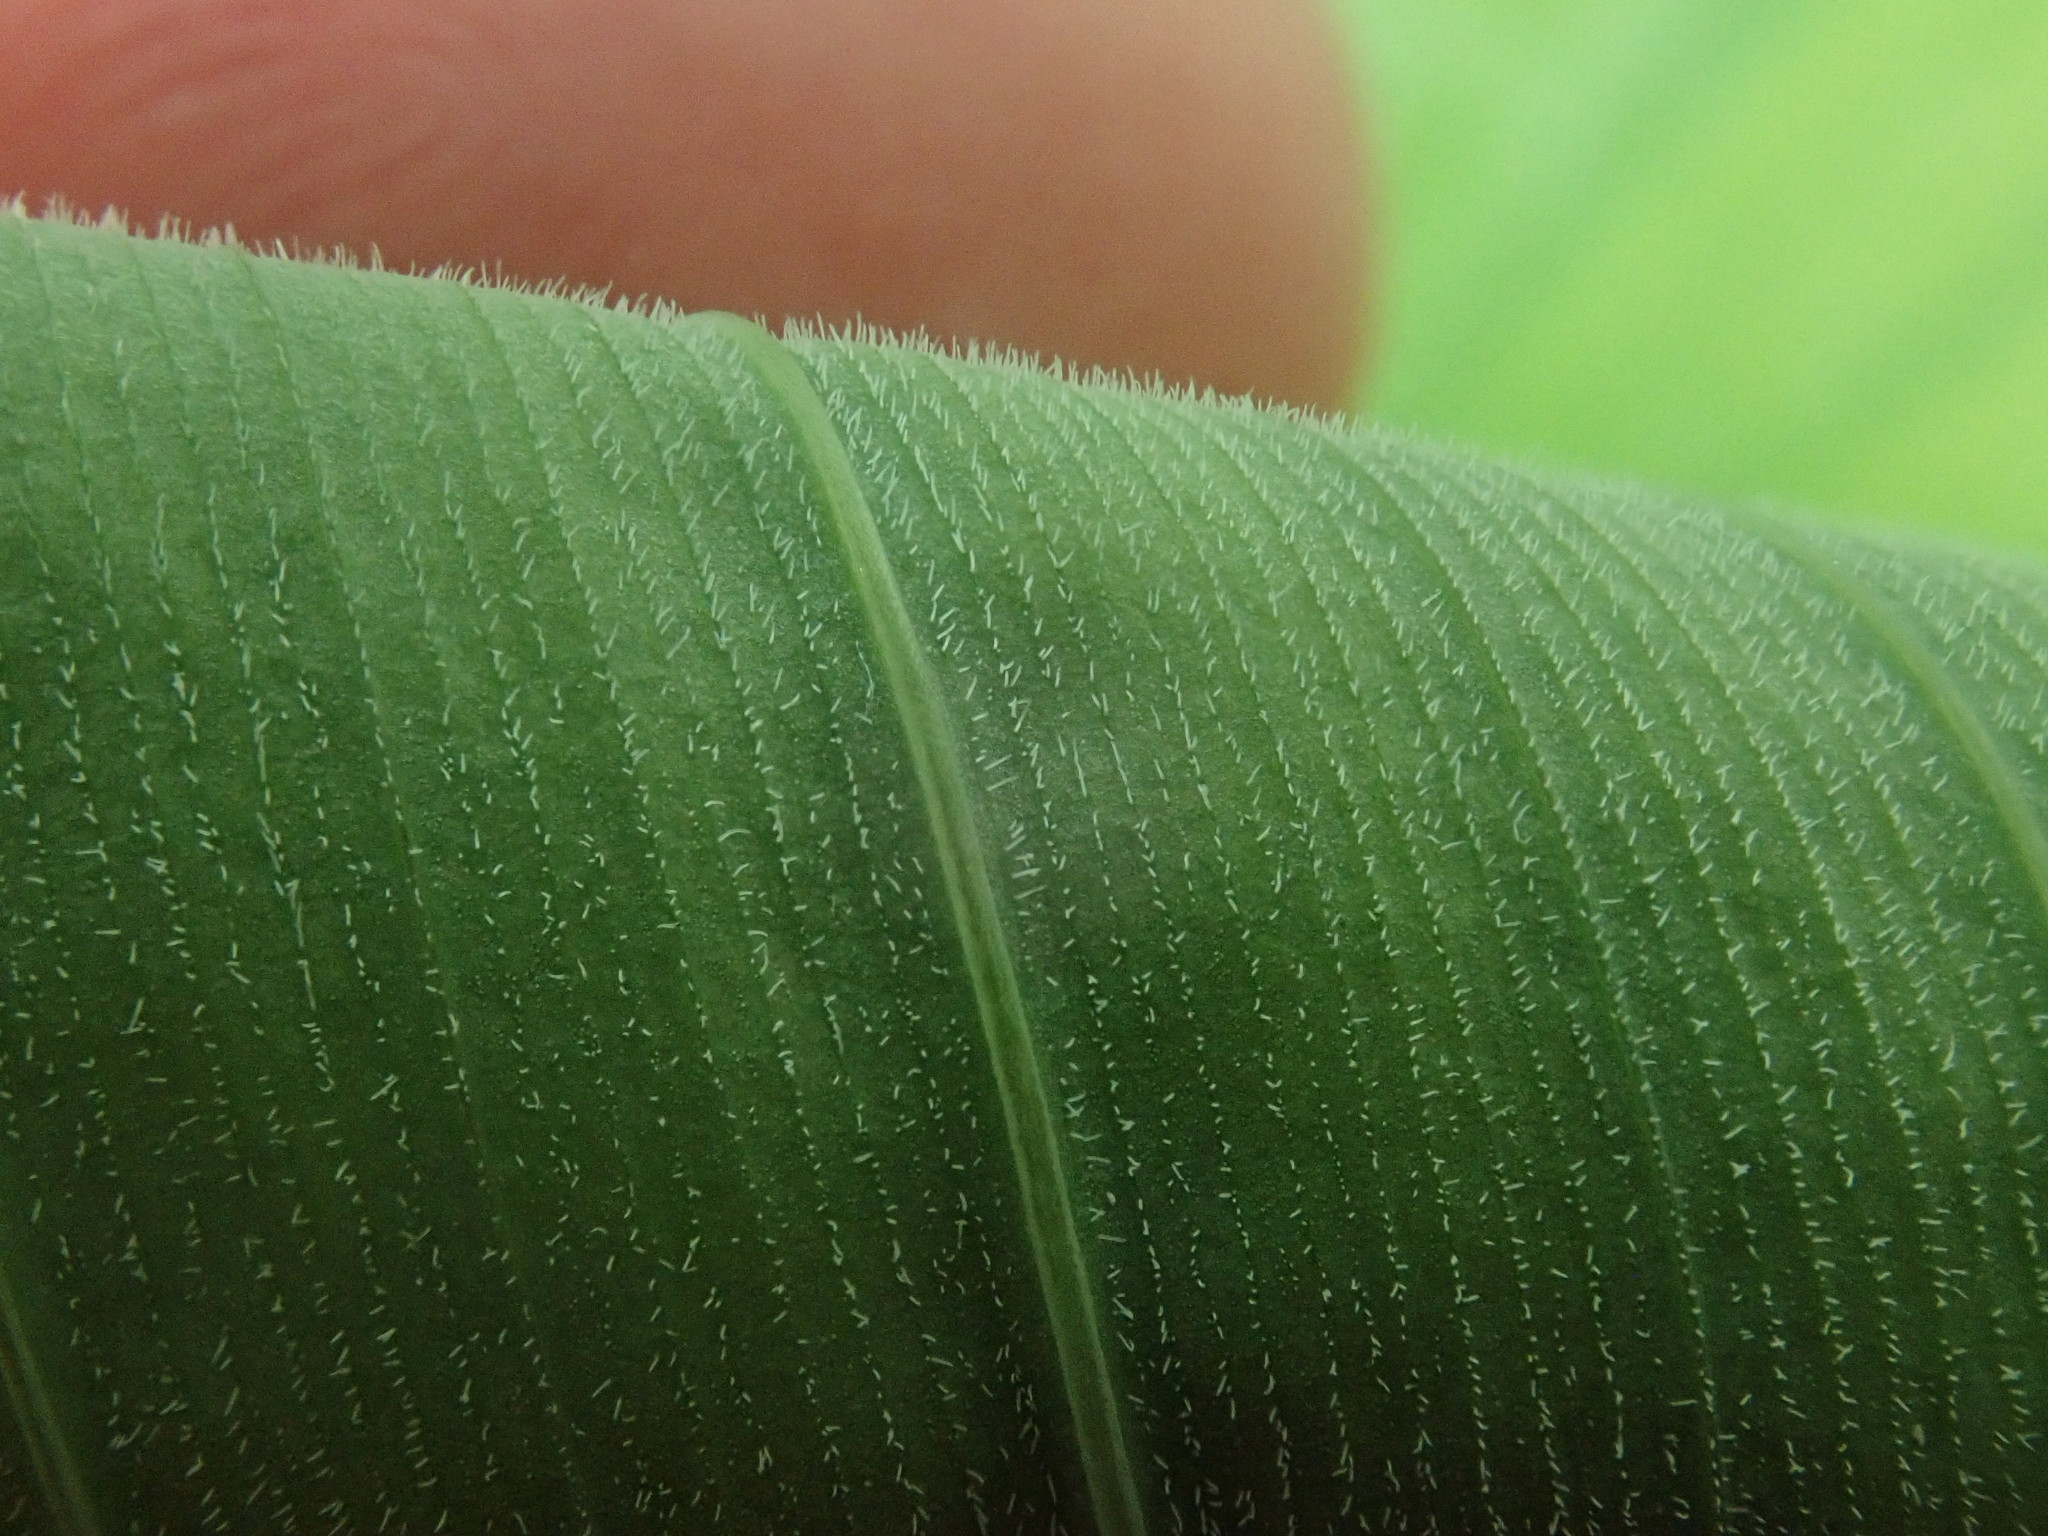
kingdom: Plantae
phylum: Tracheophyta
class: Liliopsida
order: Asparagales
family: Asparagaceae
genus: Polygonatum
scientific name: Polygonatum pubescens
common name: Downy solomon's seal
